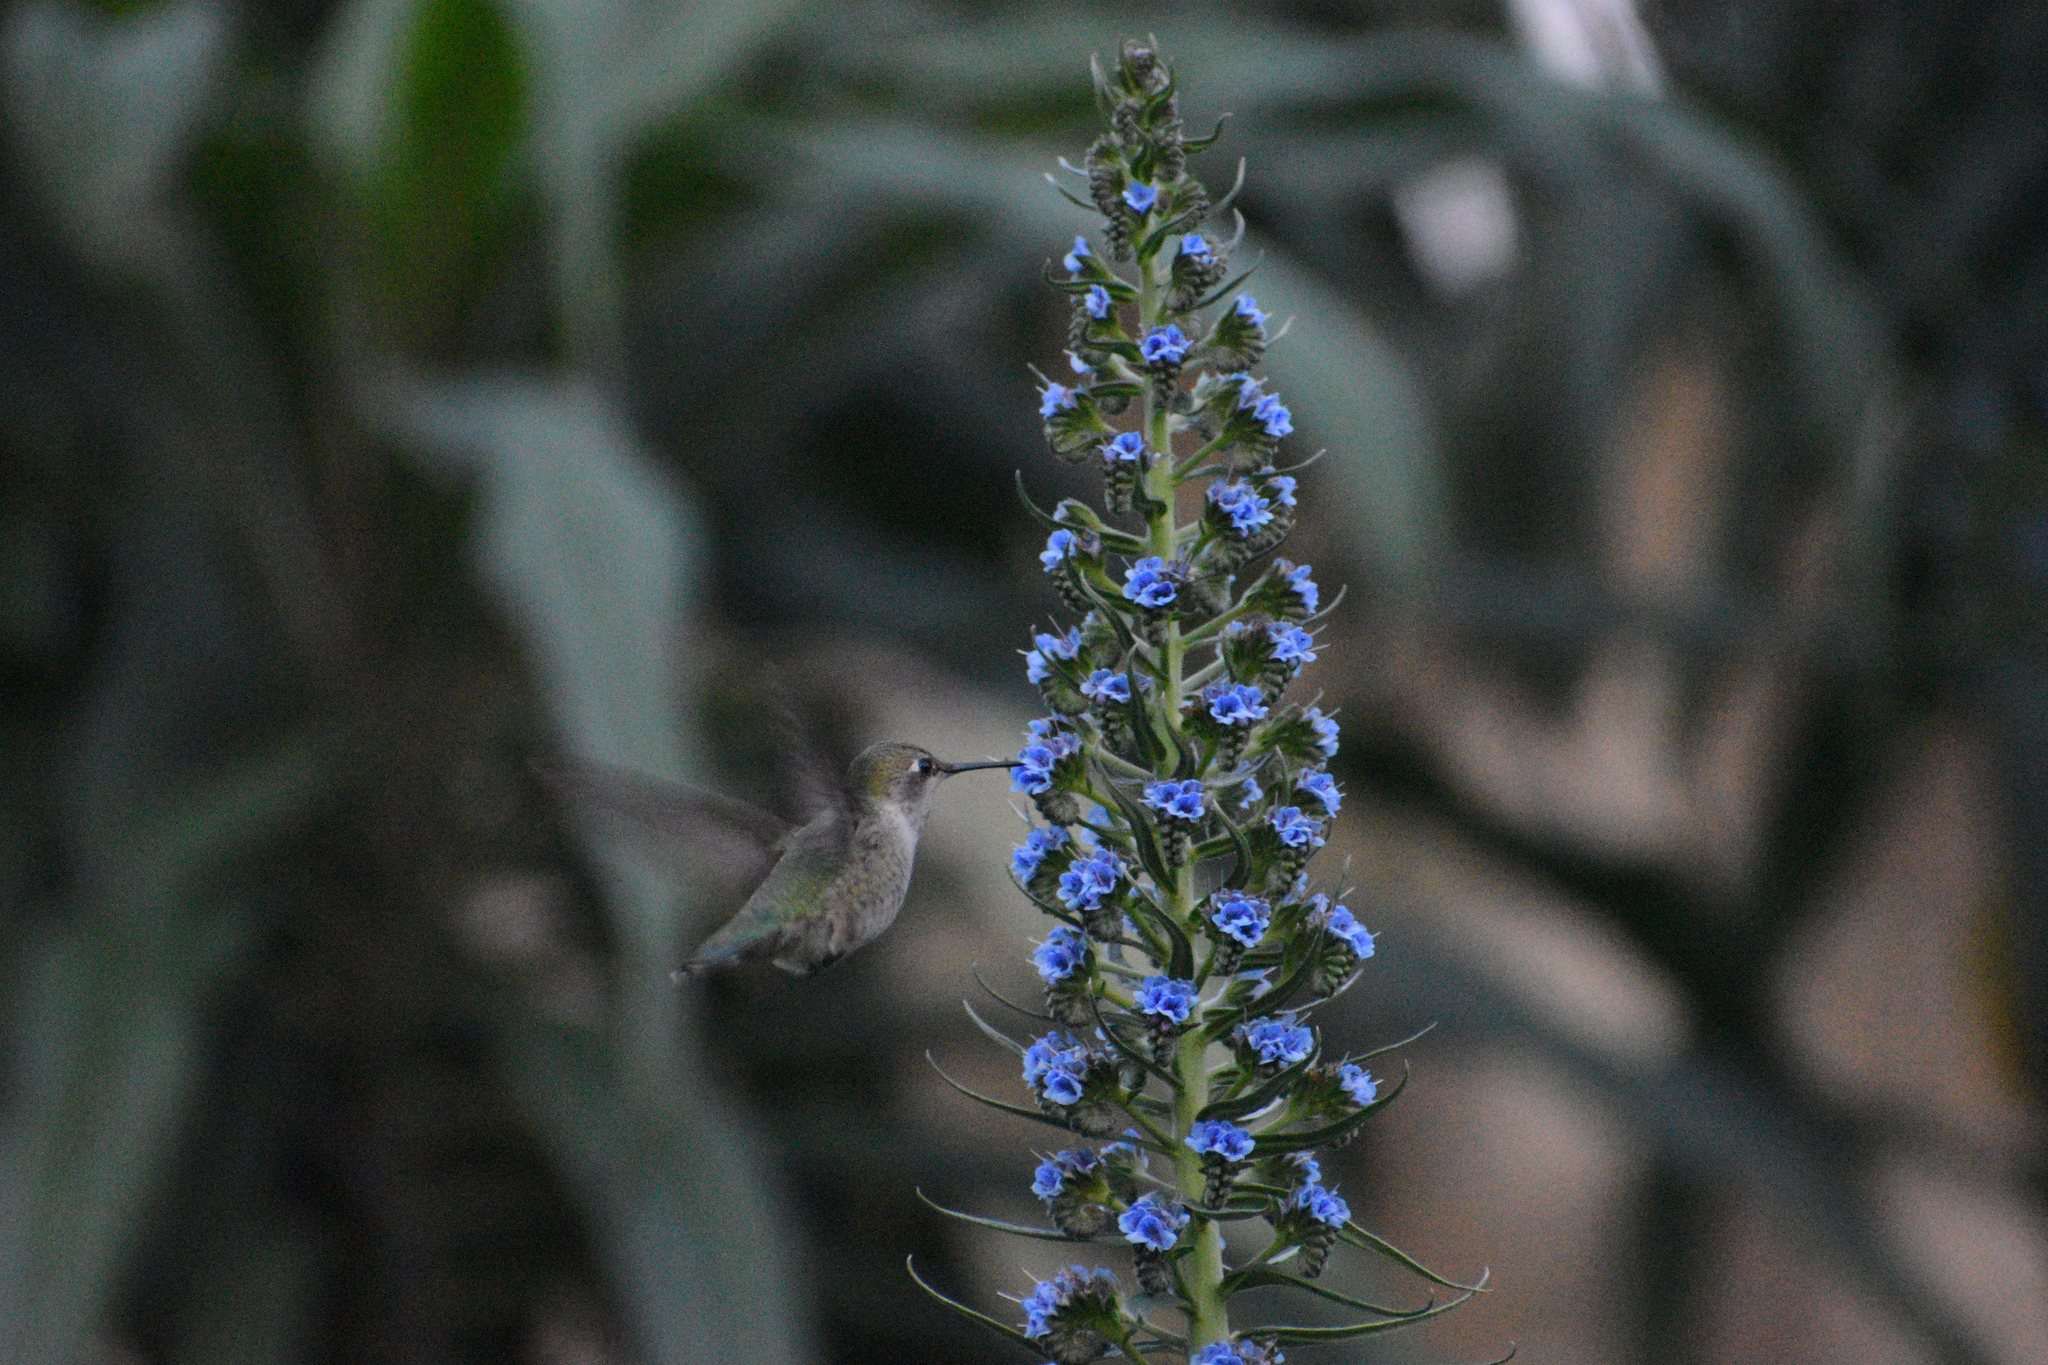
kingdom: Animalia
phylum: Chordata
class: Aves
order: Apodiformes
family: Trochilidae
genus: Calypte
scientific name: Calypte anna
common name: Anna's hummingbird
